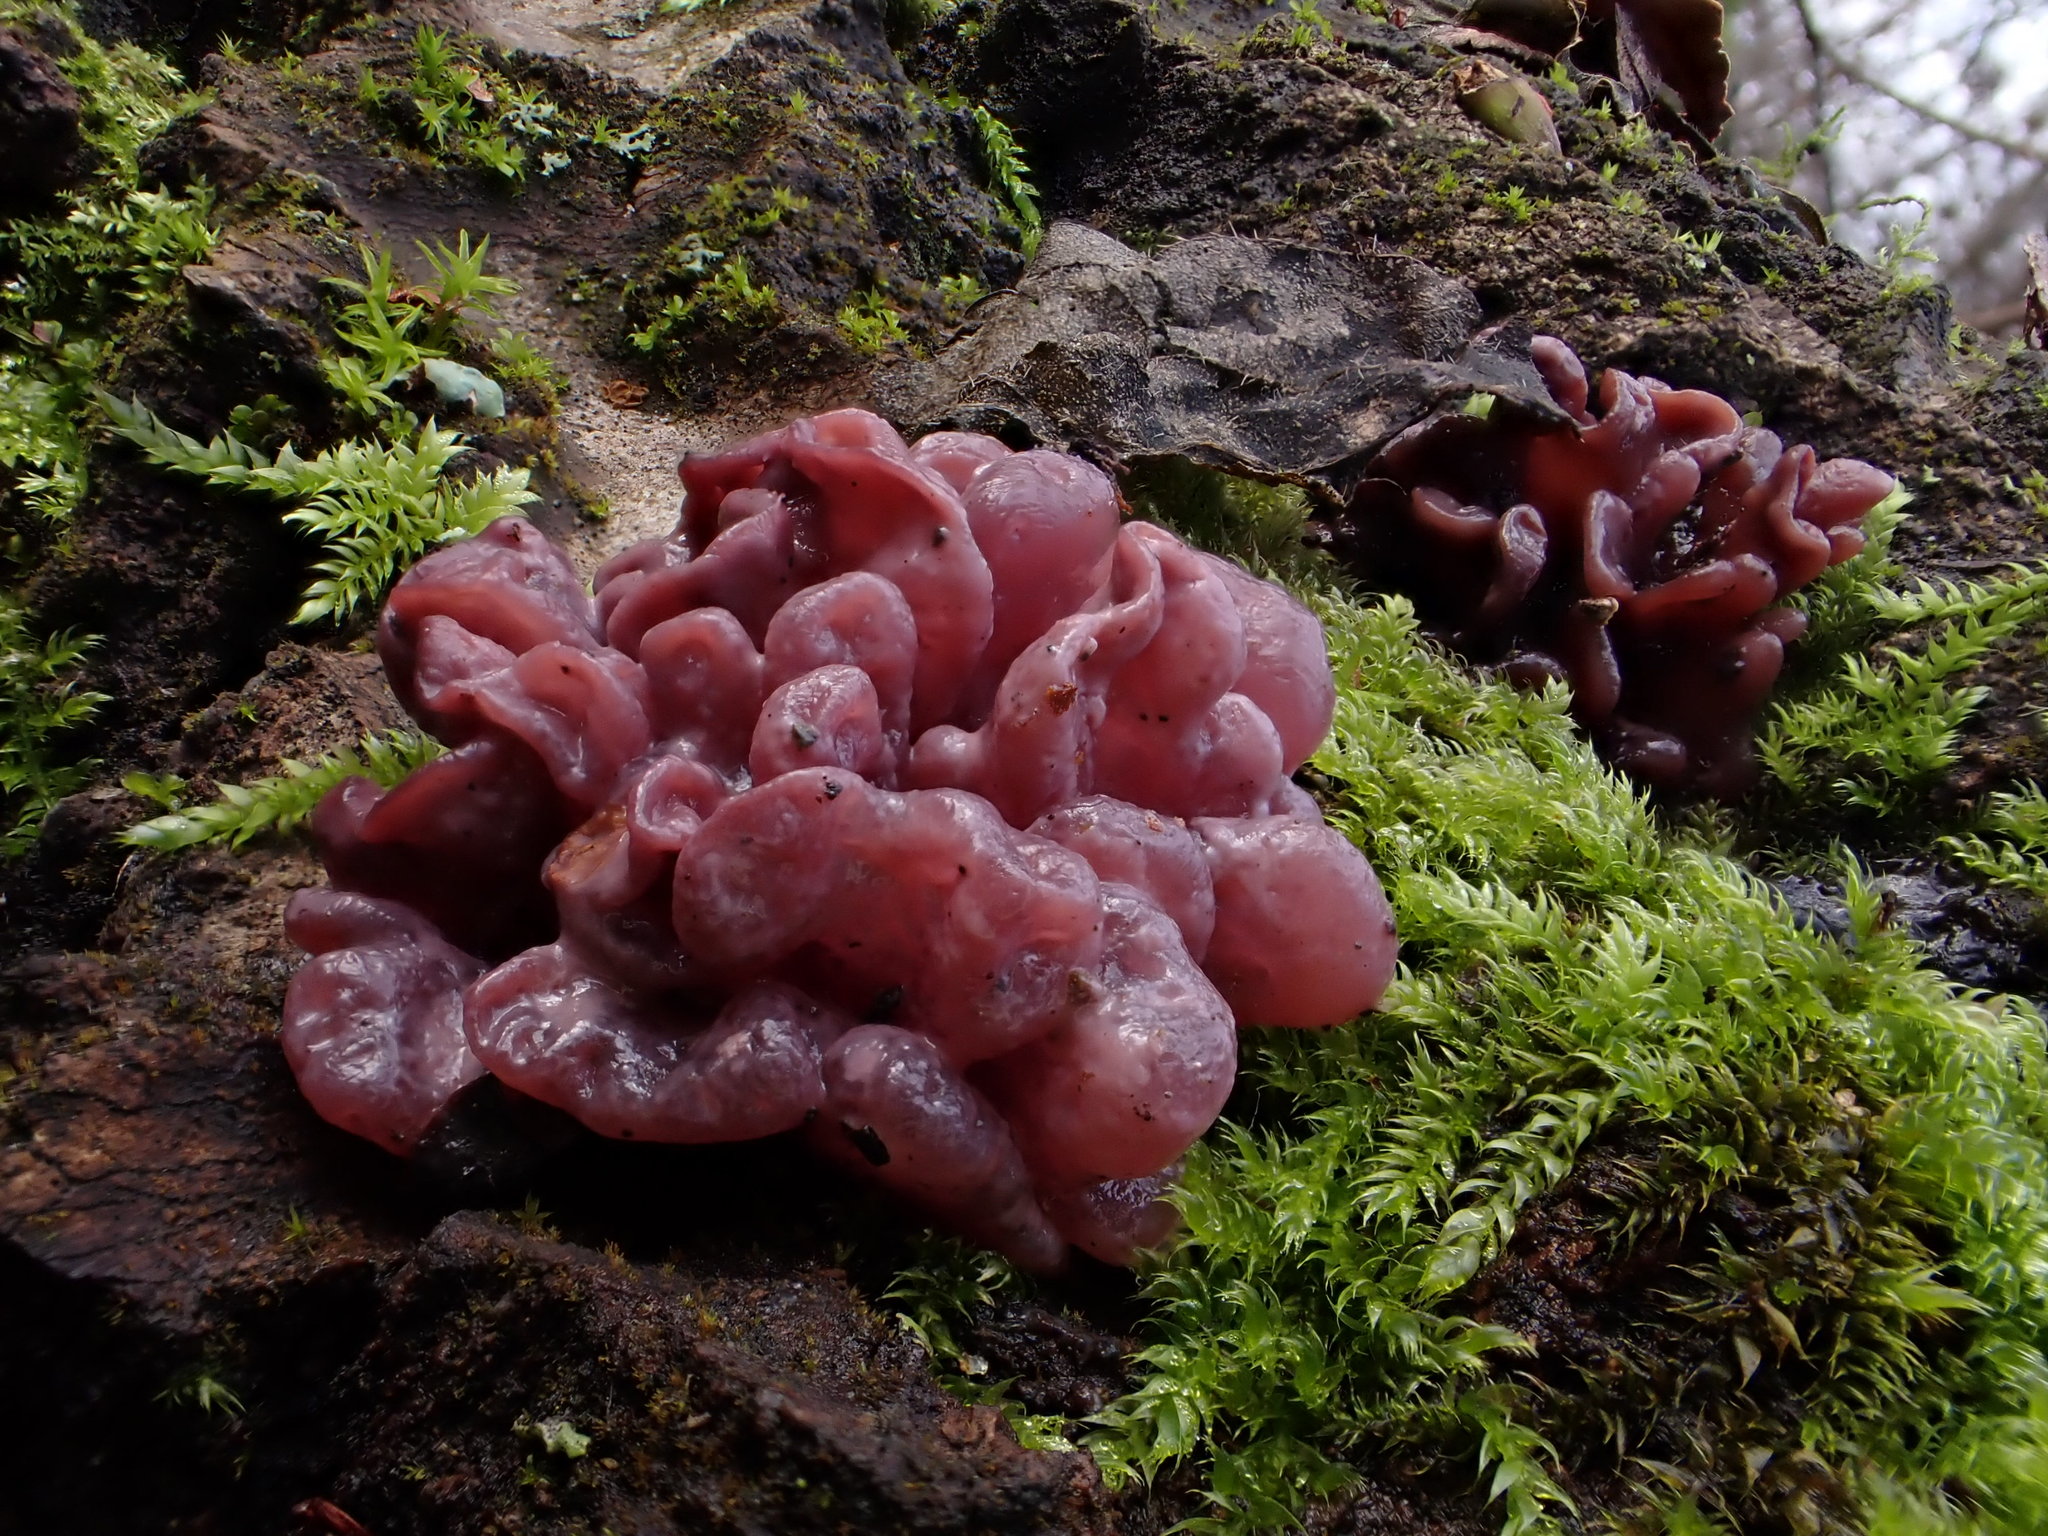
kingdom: Fungi
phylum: Ascomycota
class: Leotiomycetes
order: Helotiales
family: Gelatinodiscaceae
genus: Ascocoryne
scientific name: Ascocoryne sarcoides
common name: Purple jellydisc
